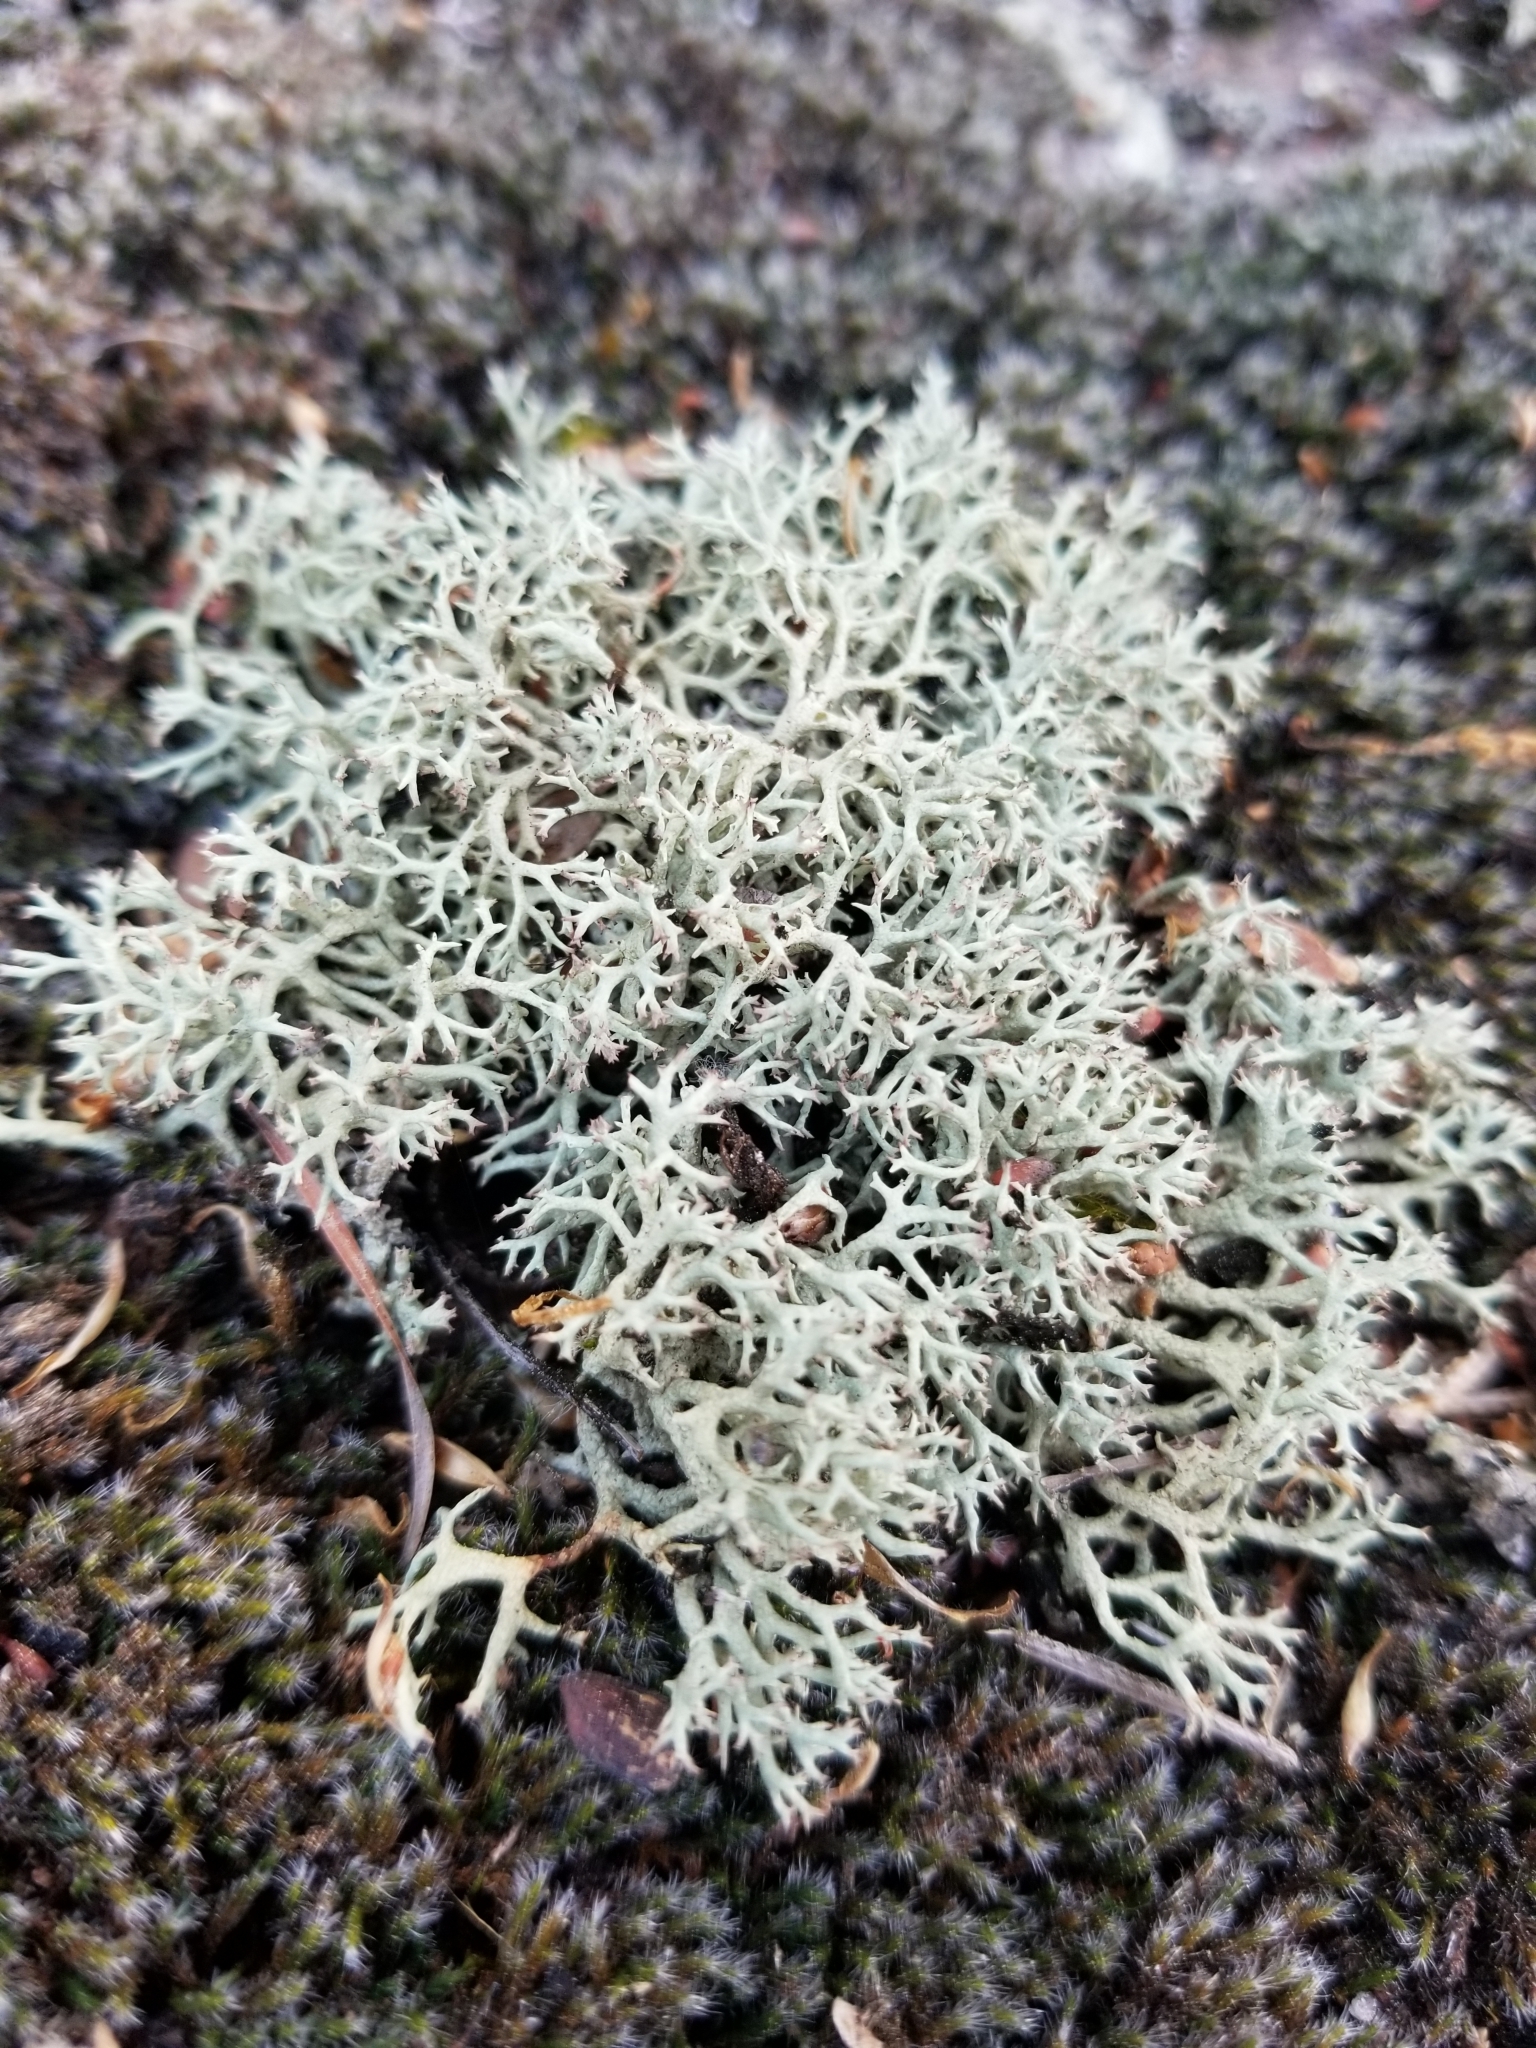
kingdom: Fungi
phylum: Ascomycota
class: Lecanoromycetes
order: Lecanorales
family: Cladoniaceae
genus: Cladonia
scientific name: Cladonia dimorphoclada
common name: Prostrate thorn cladonia
